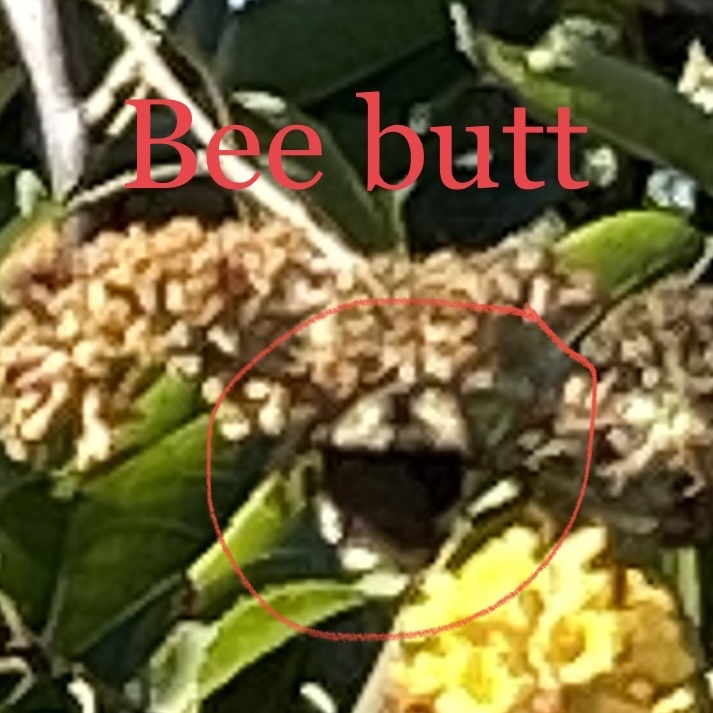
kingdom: Animalia
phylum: Arthropoda
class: Insecta
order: Hymenoptera
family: Apidae
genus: Bombus
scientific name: Bombus melanopygus
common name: Black tail bumble bee
